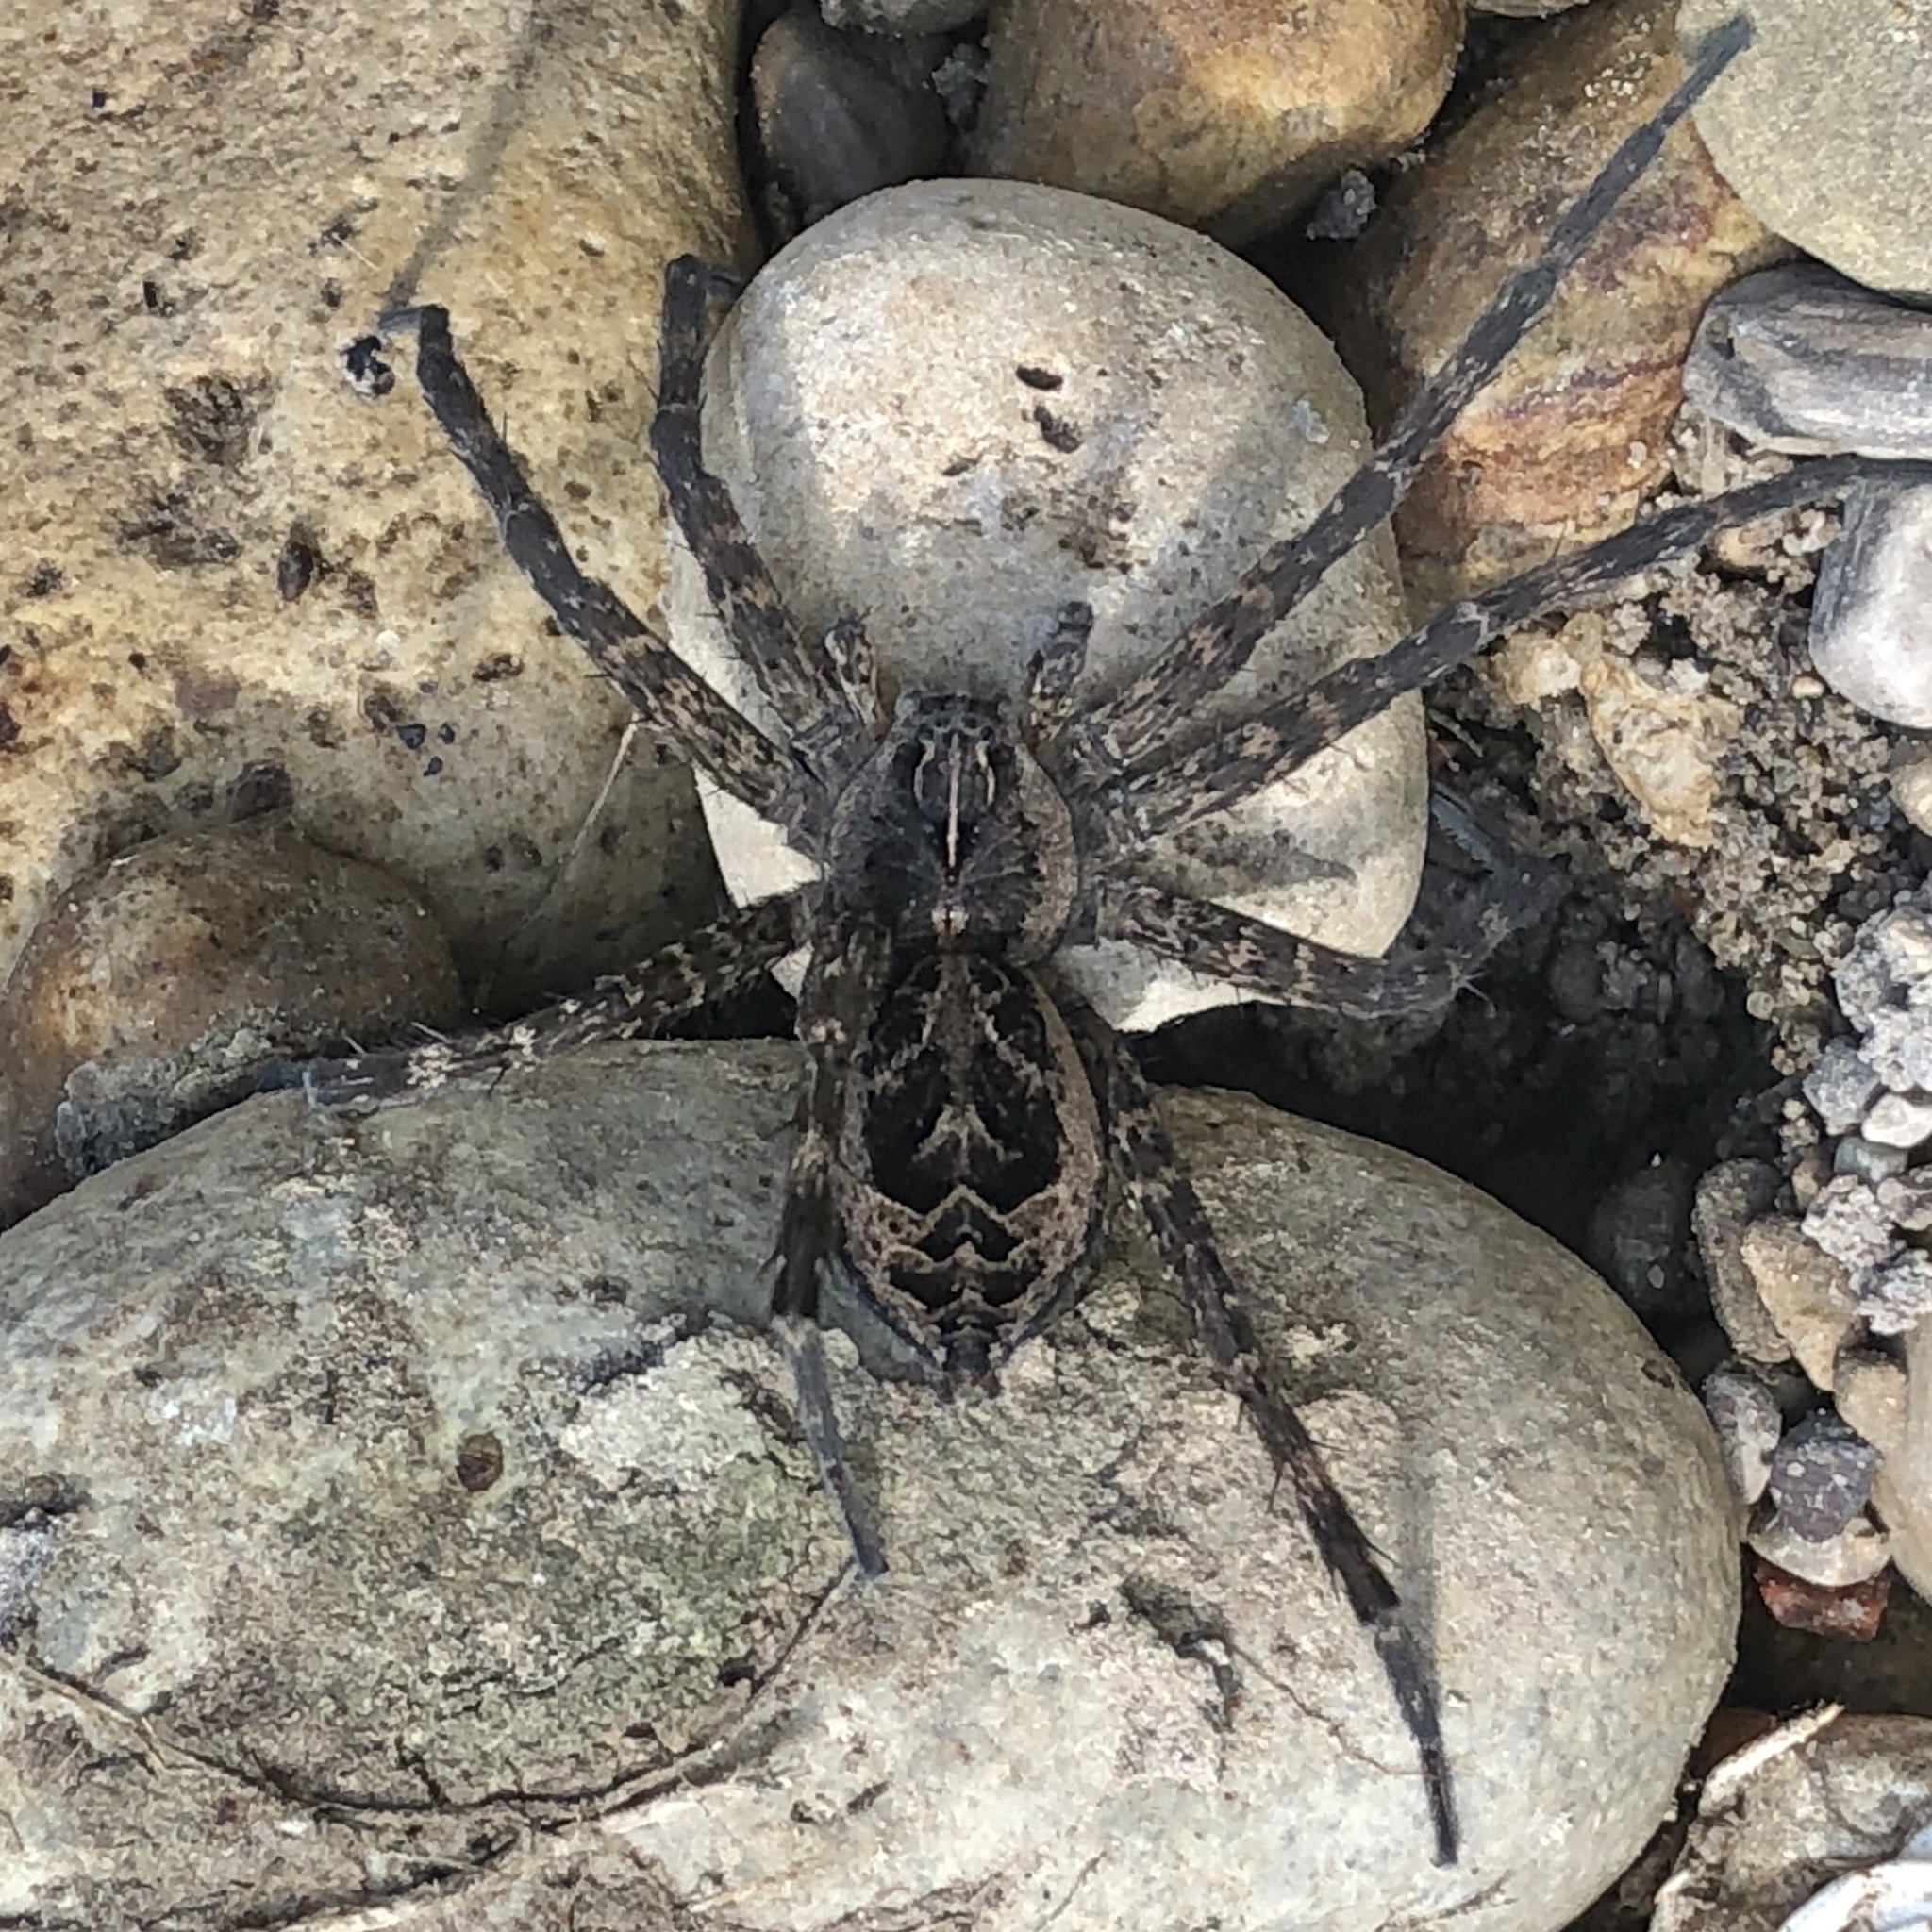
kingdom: Animalia
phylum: Arthropoda
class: Arachnida
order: Araneae
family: Pisauridae
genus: Dolomedes
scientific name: Dolomedes scriptus
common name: Striped fishing spider
